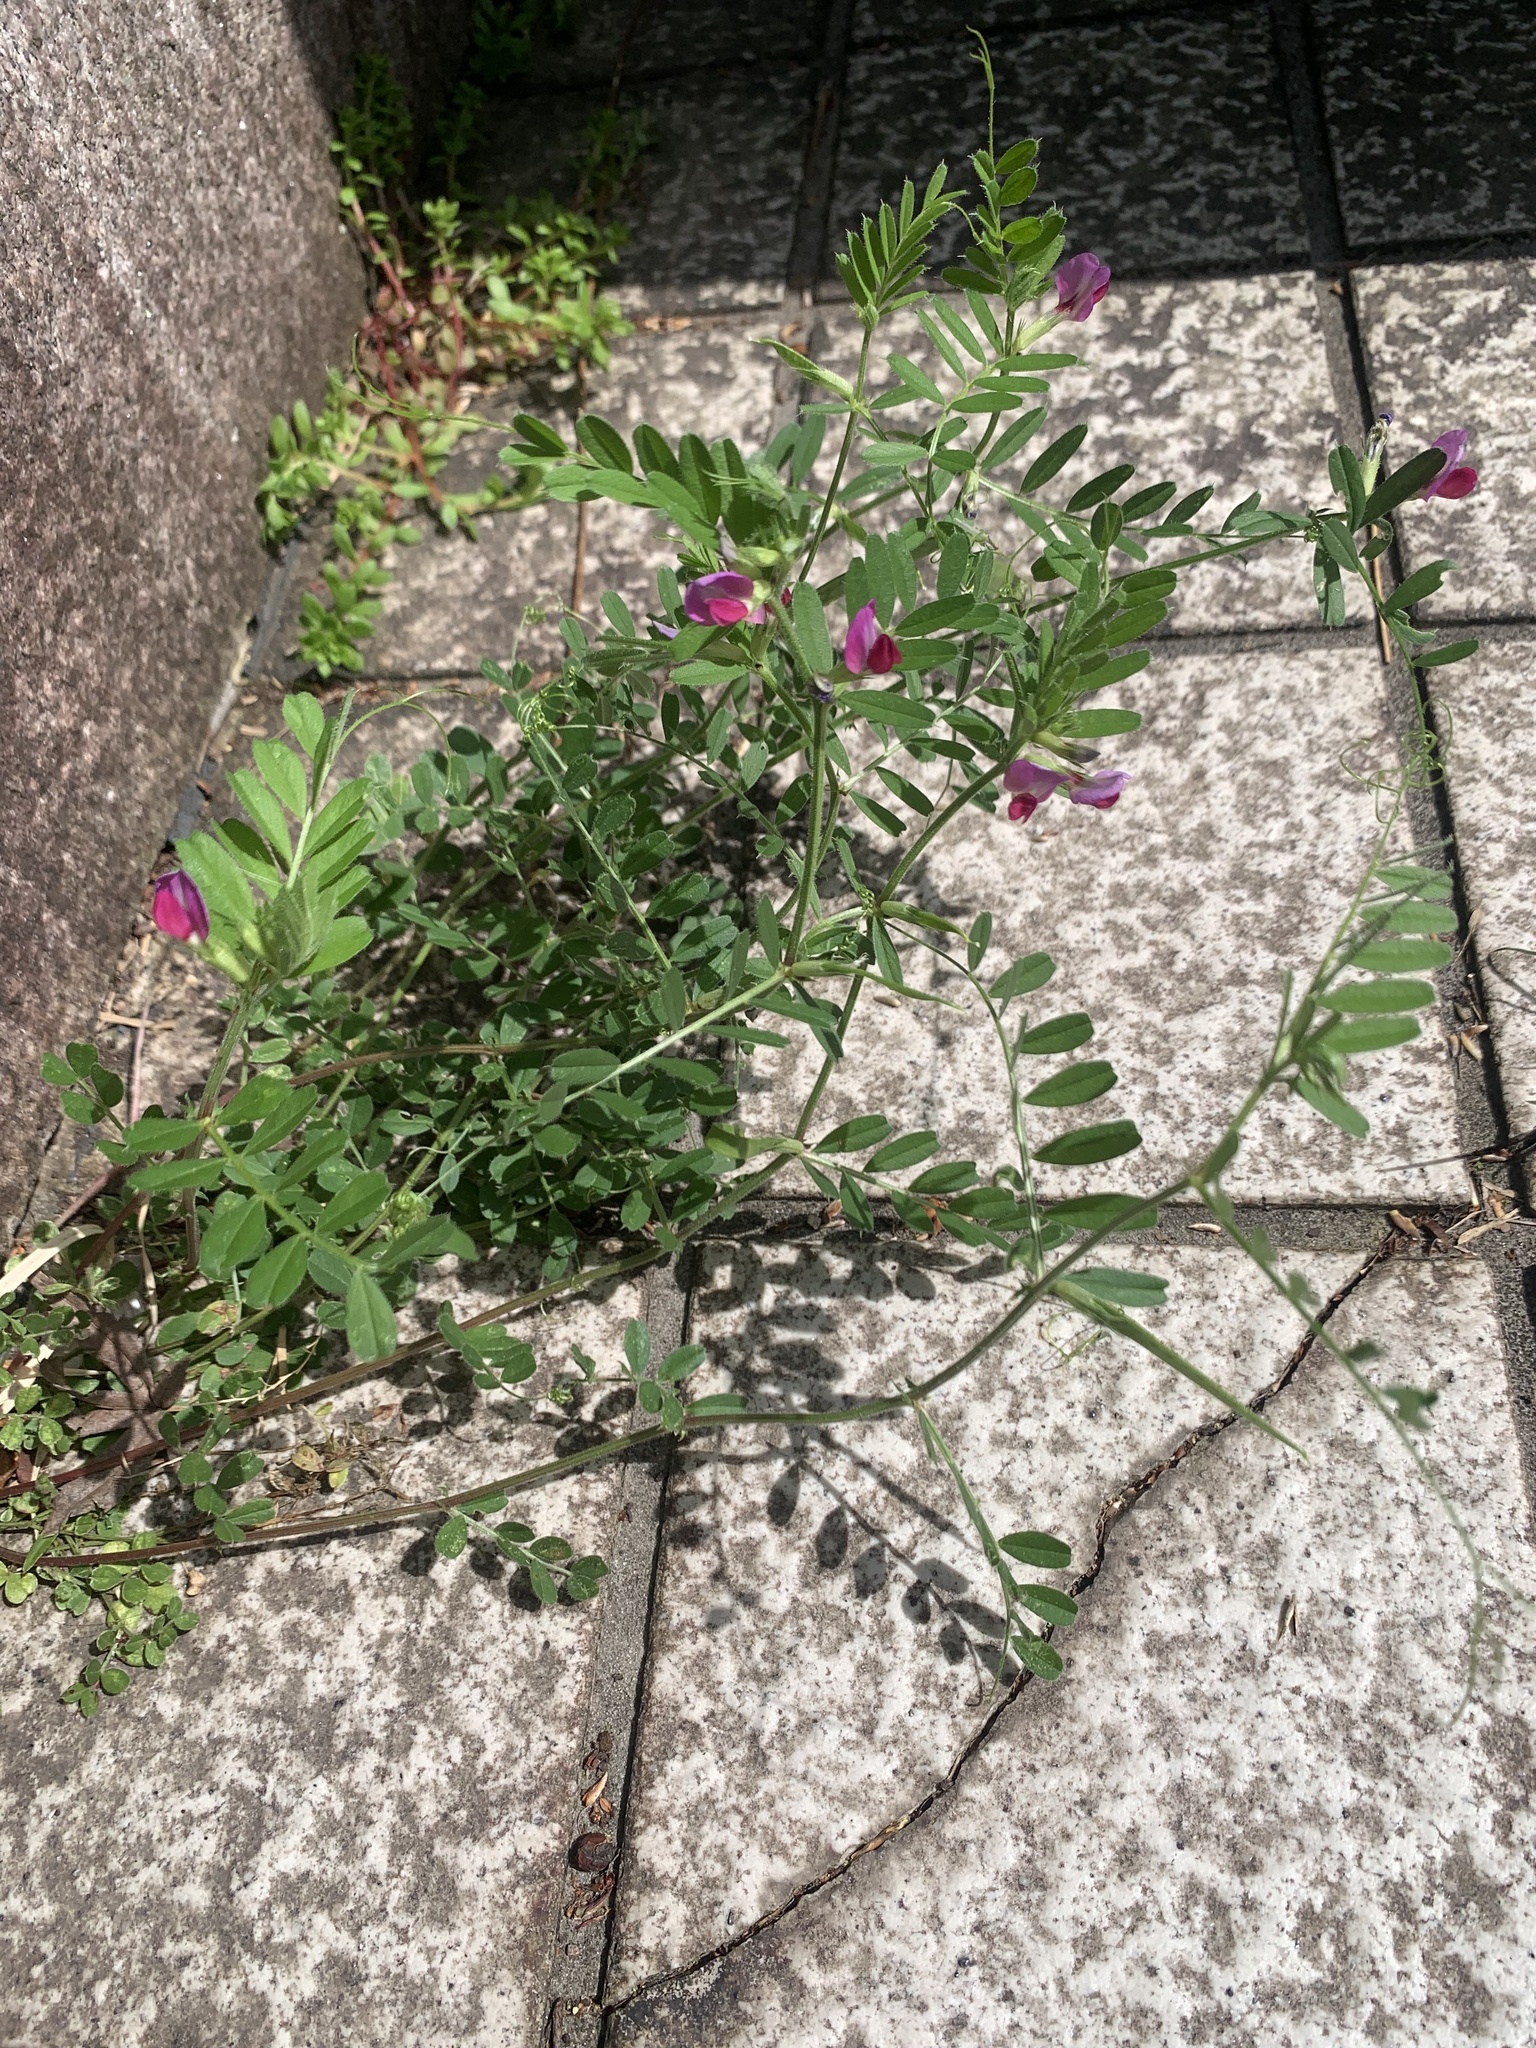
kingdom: Plantae
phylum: Tracheophyta
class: Magnoliopsida
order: Fabales
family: Fabaceae
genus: Vicia
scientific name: Vicia sativa
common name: Garden vetch
